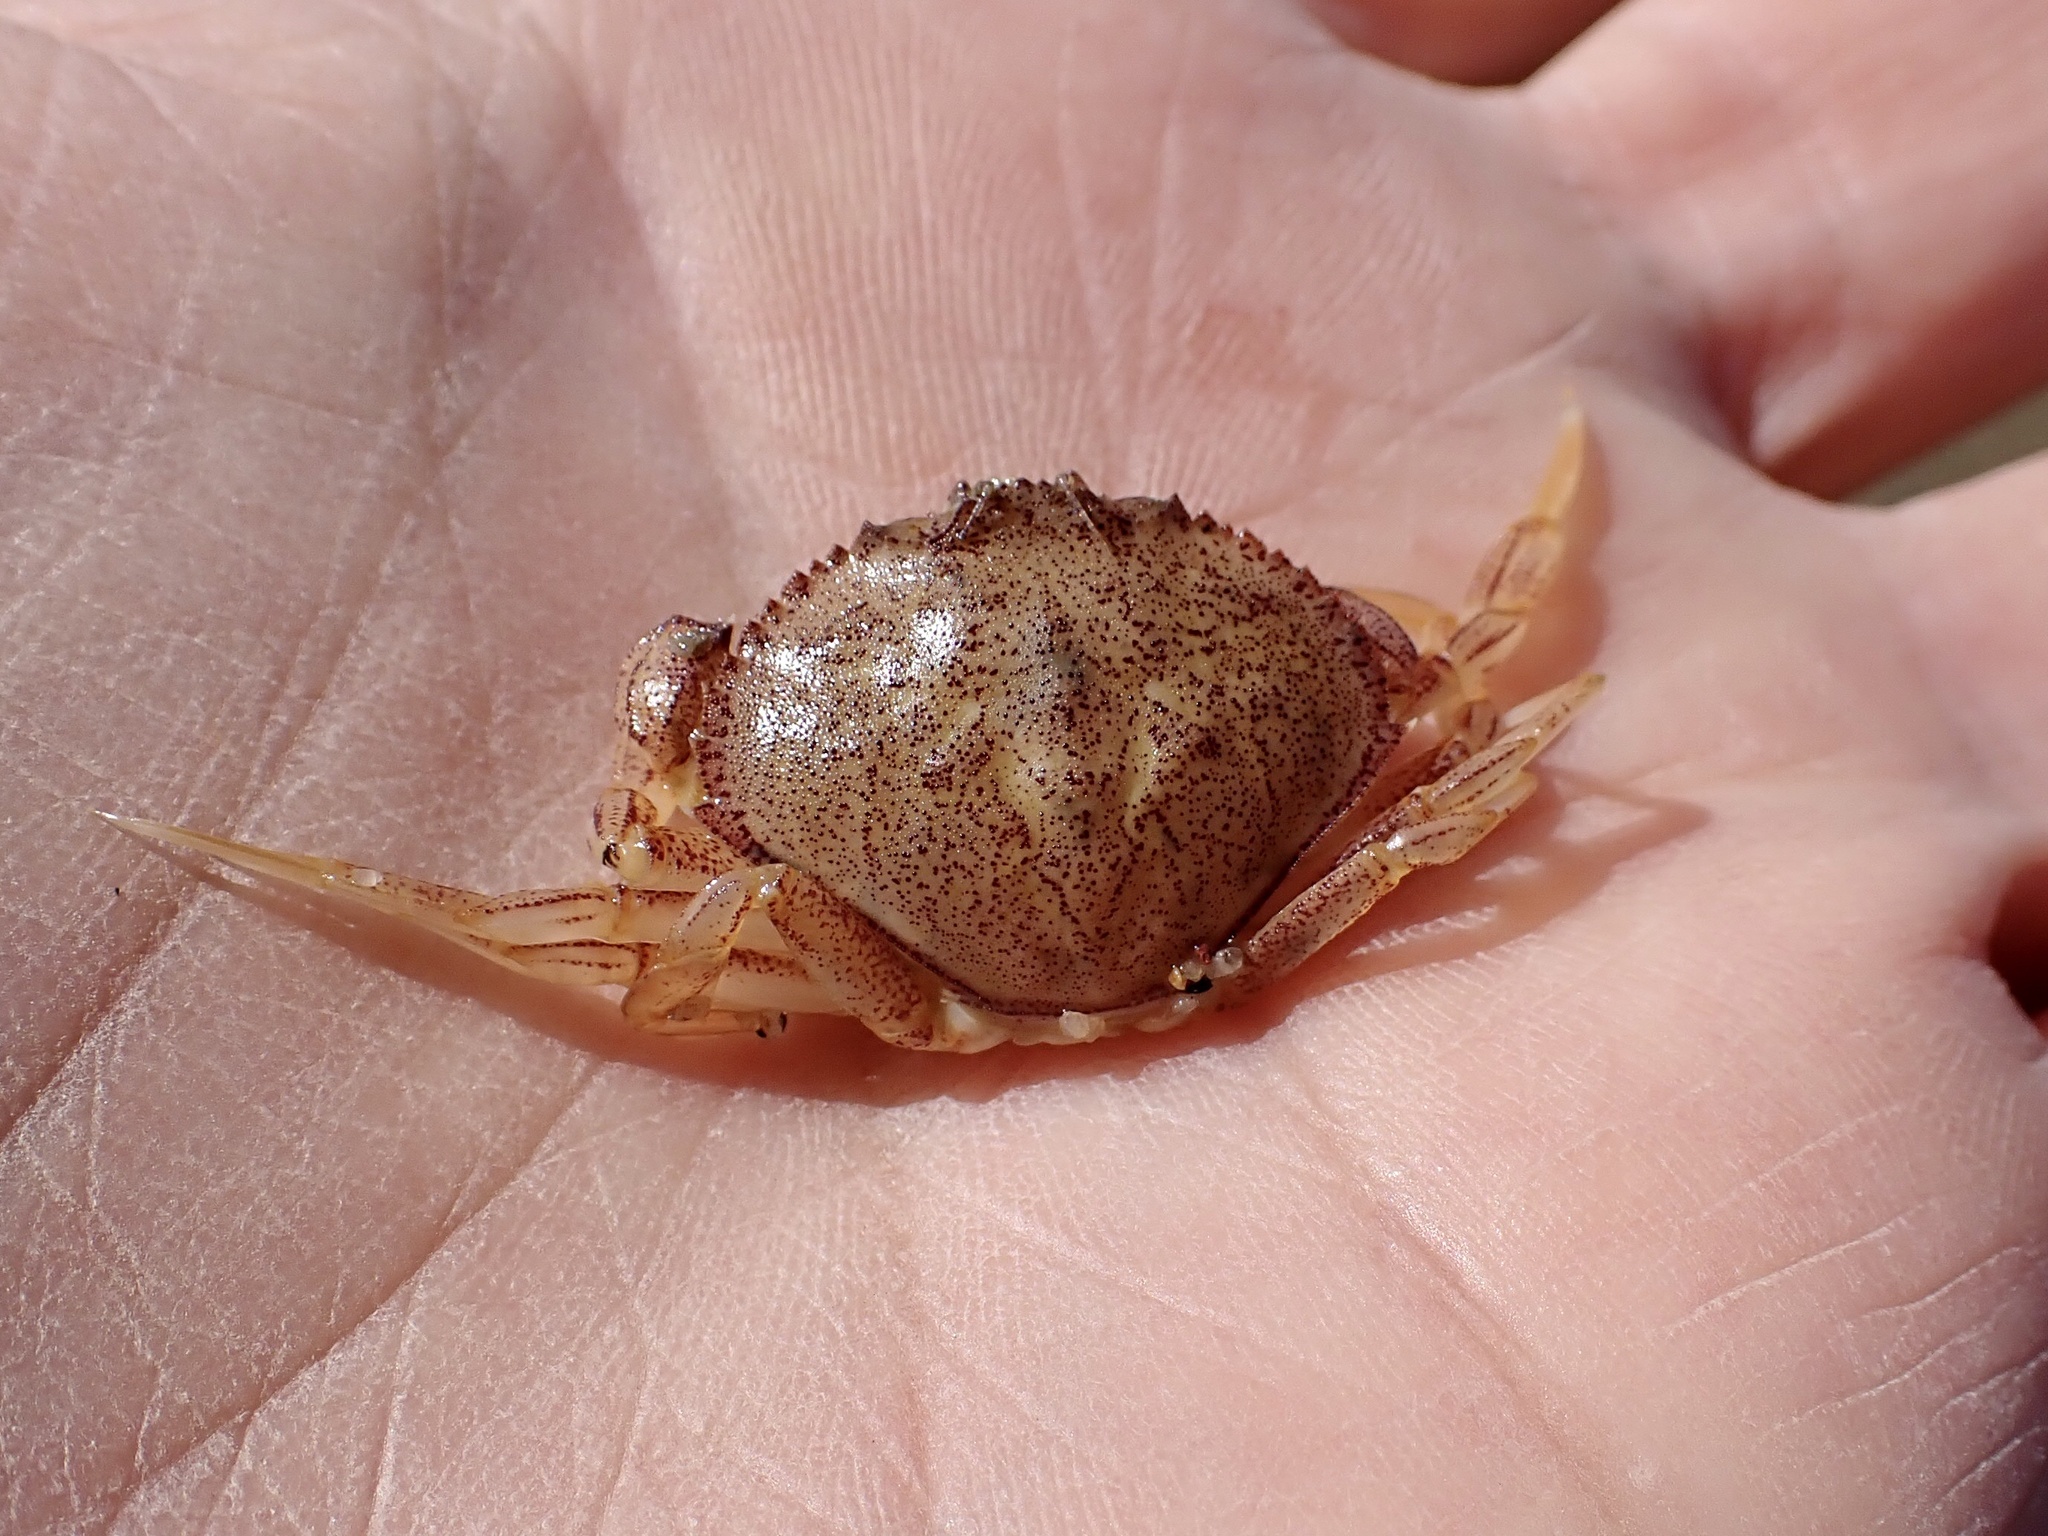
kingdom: Animalia
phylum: Arthropoda
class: Malacostraca
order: Decapoda
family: Cancridae
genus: Metacarcinus
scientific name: Metacarcinus magister
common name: Californian crab
